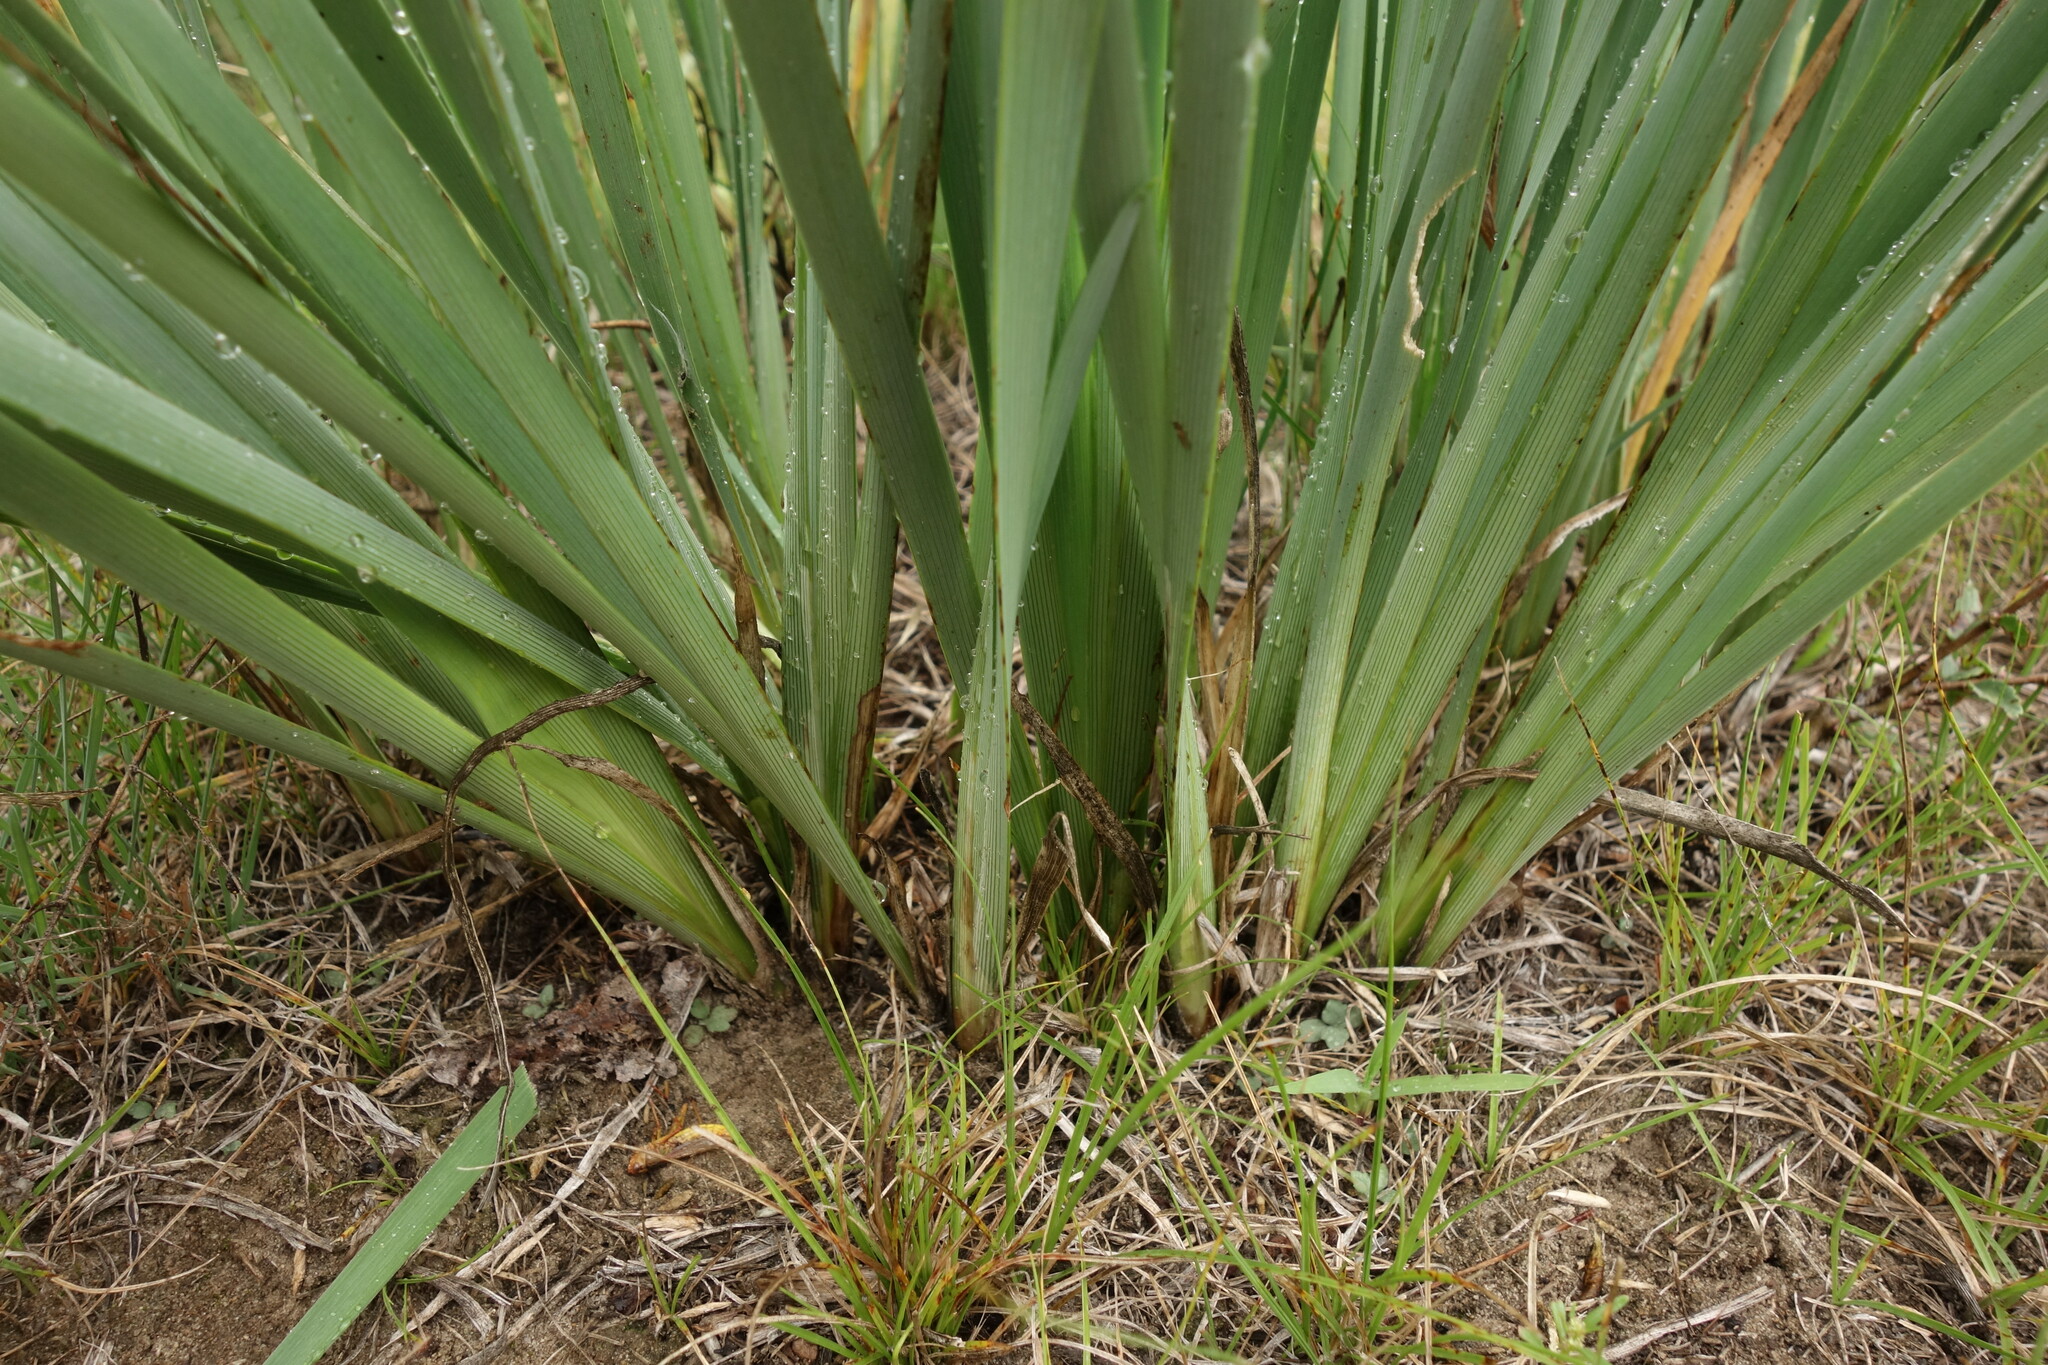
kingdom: Plantae
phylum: Tracheophyta
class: Liliopsida
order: Asparagales
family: Iridaceae
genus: Iris
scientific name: Iris lactea
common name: White-flower chinese iris
